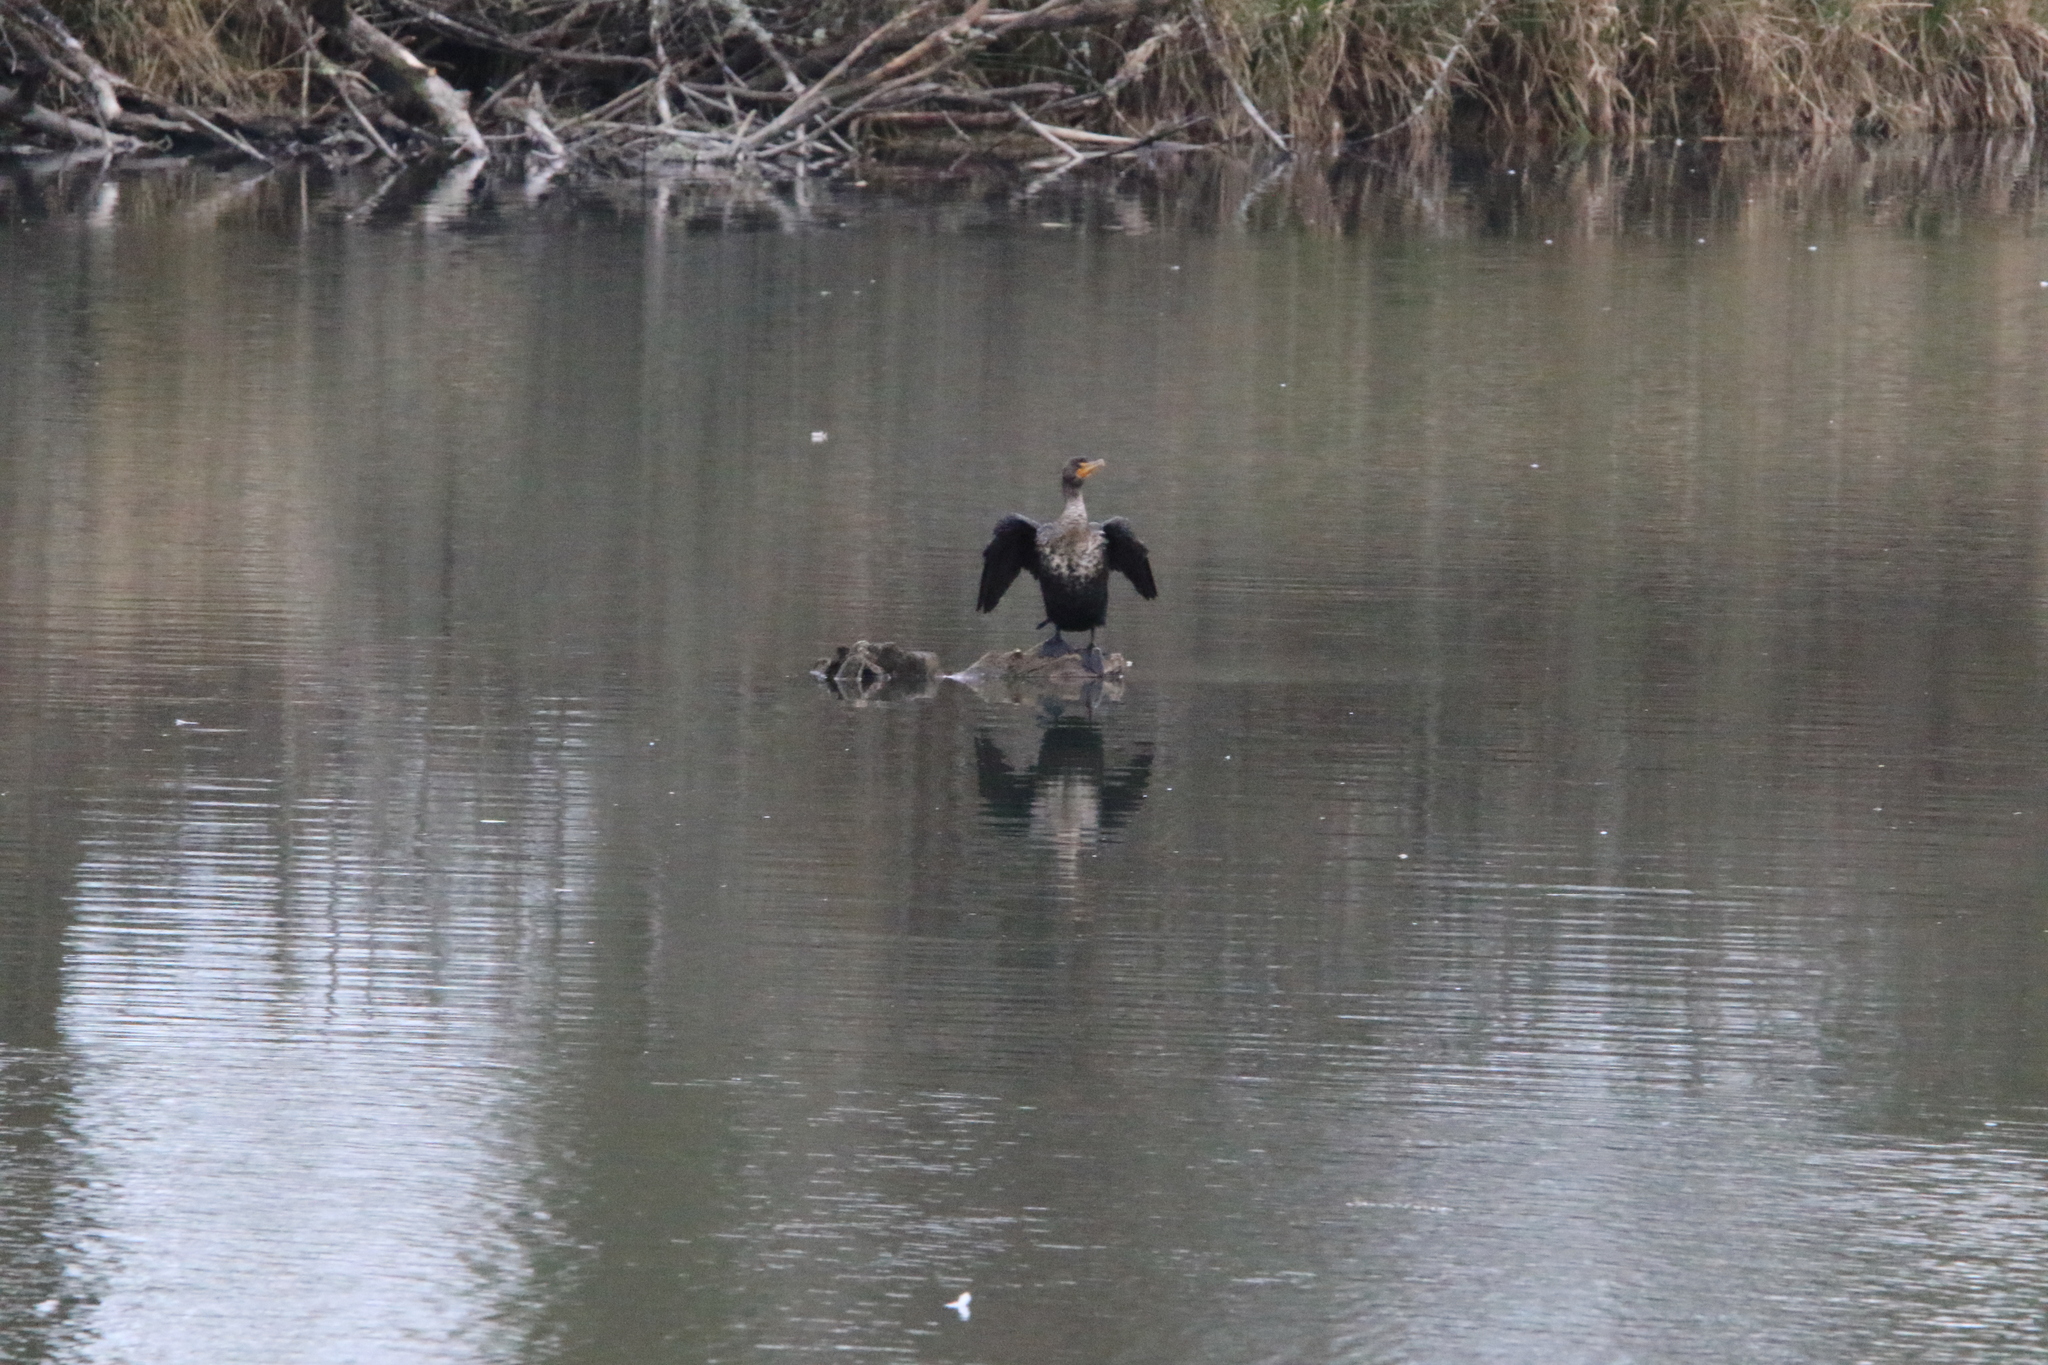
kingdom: Animalia
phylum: Chordata
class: Aves
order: Suliformes
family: Phalacrocoracidae
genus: Phalacrocorax
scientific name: Phalacrocorax auritus
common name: Double-crested cormorant
